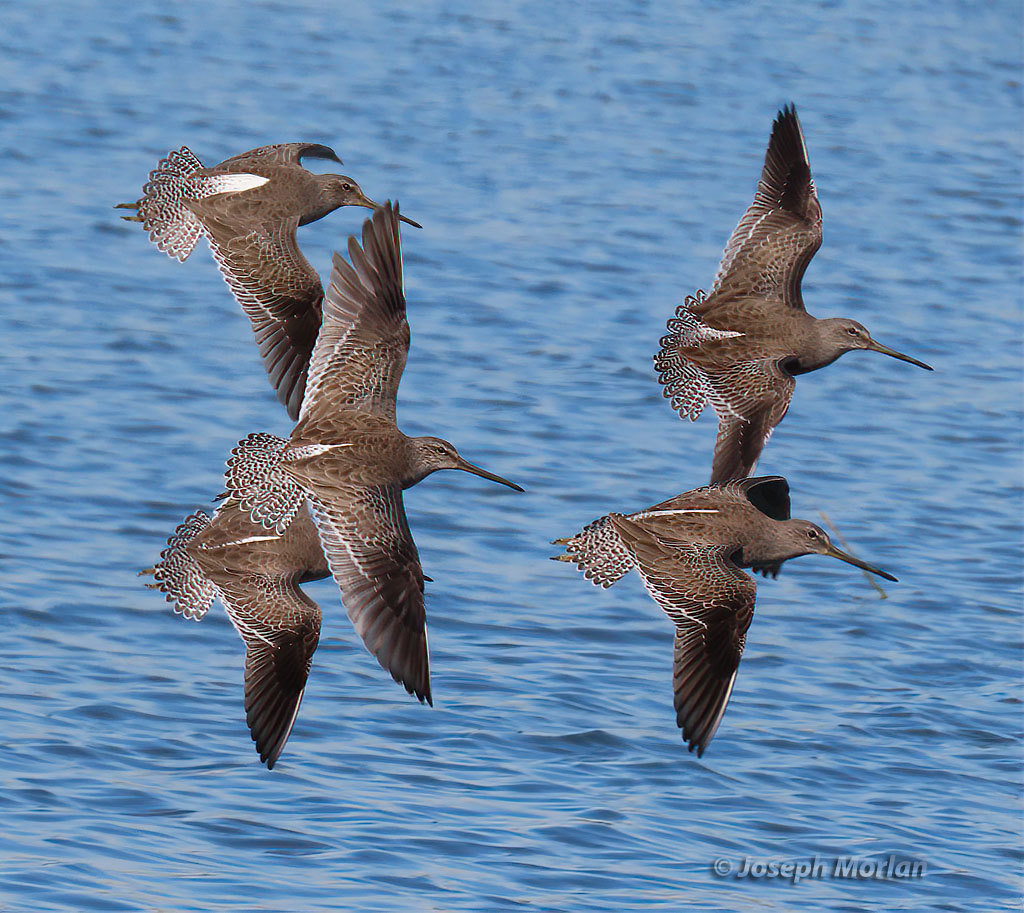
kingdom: Animalia
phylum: Chordata
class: Aves
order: Charadriiformes
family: Scolopacidae
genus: Limnodromus
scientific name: Limnodromus griseus
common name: Short-billed dowitcher
